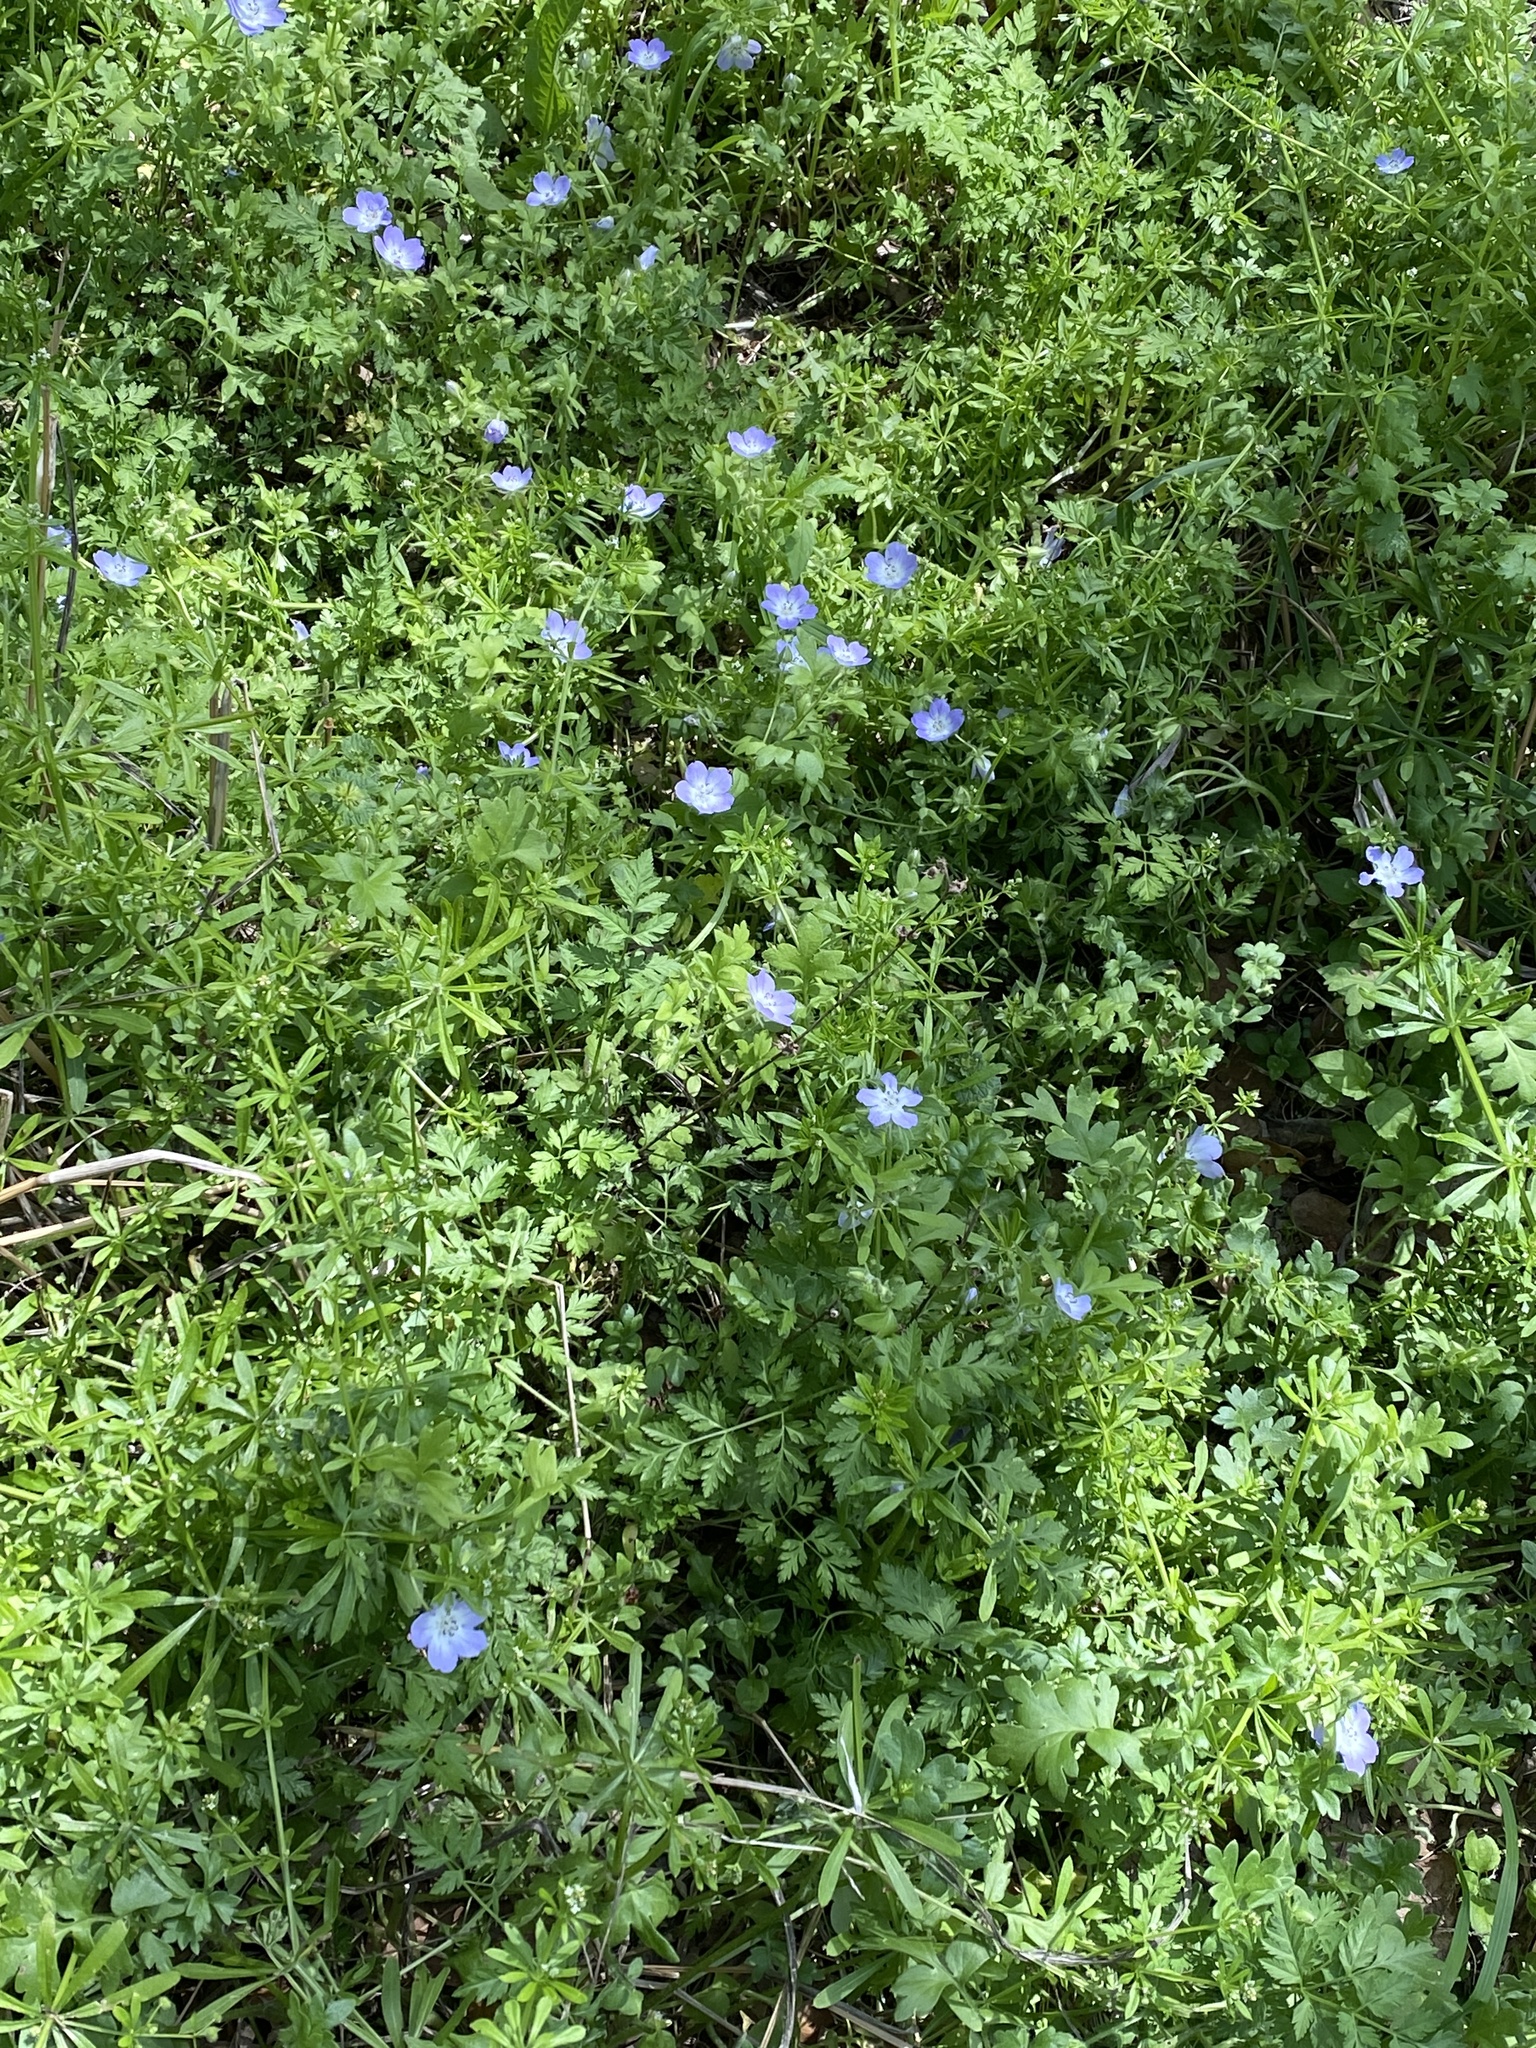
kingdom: Plantae
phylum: Tracheophyta
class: Magnoliopsida
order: Boraginales
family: Hydrophyllaceae
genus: Nemophila
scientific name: Nemophila phacelioides
